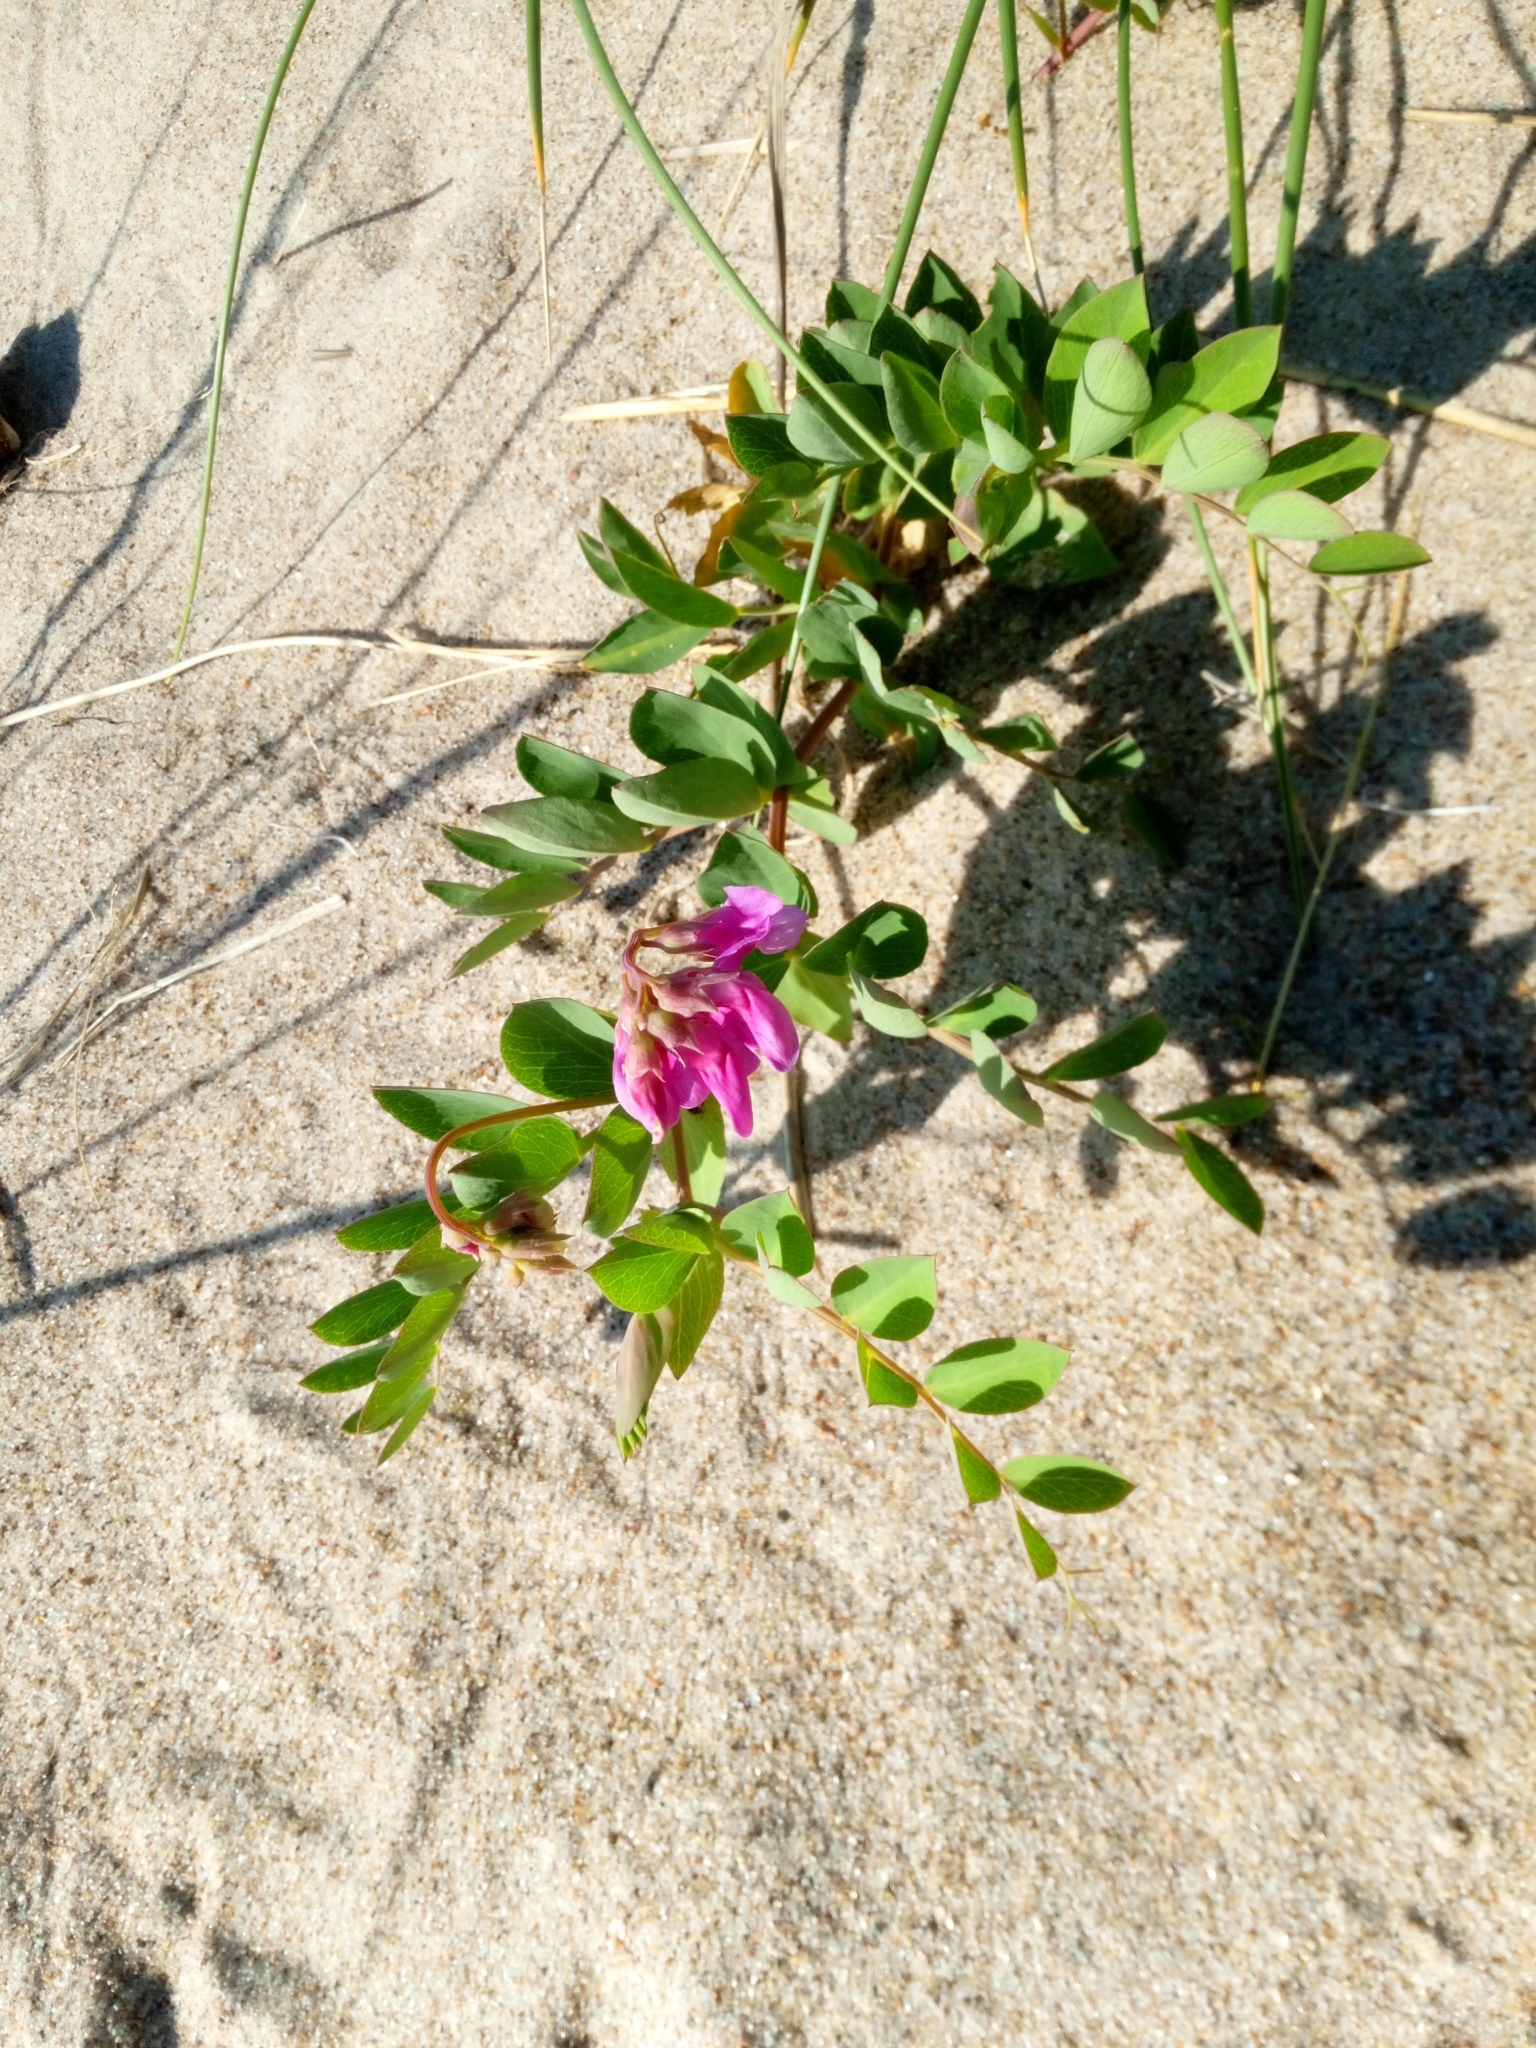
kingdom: Plantae
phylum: Tracheophyta
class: Magnoliopsida
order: Fabales
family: Fabaceae
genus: Lathyrus
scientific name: Lathyrus japonicus
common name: Sea pea
